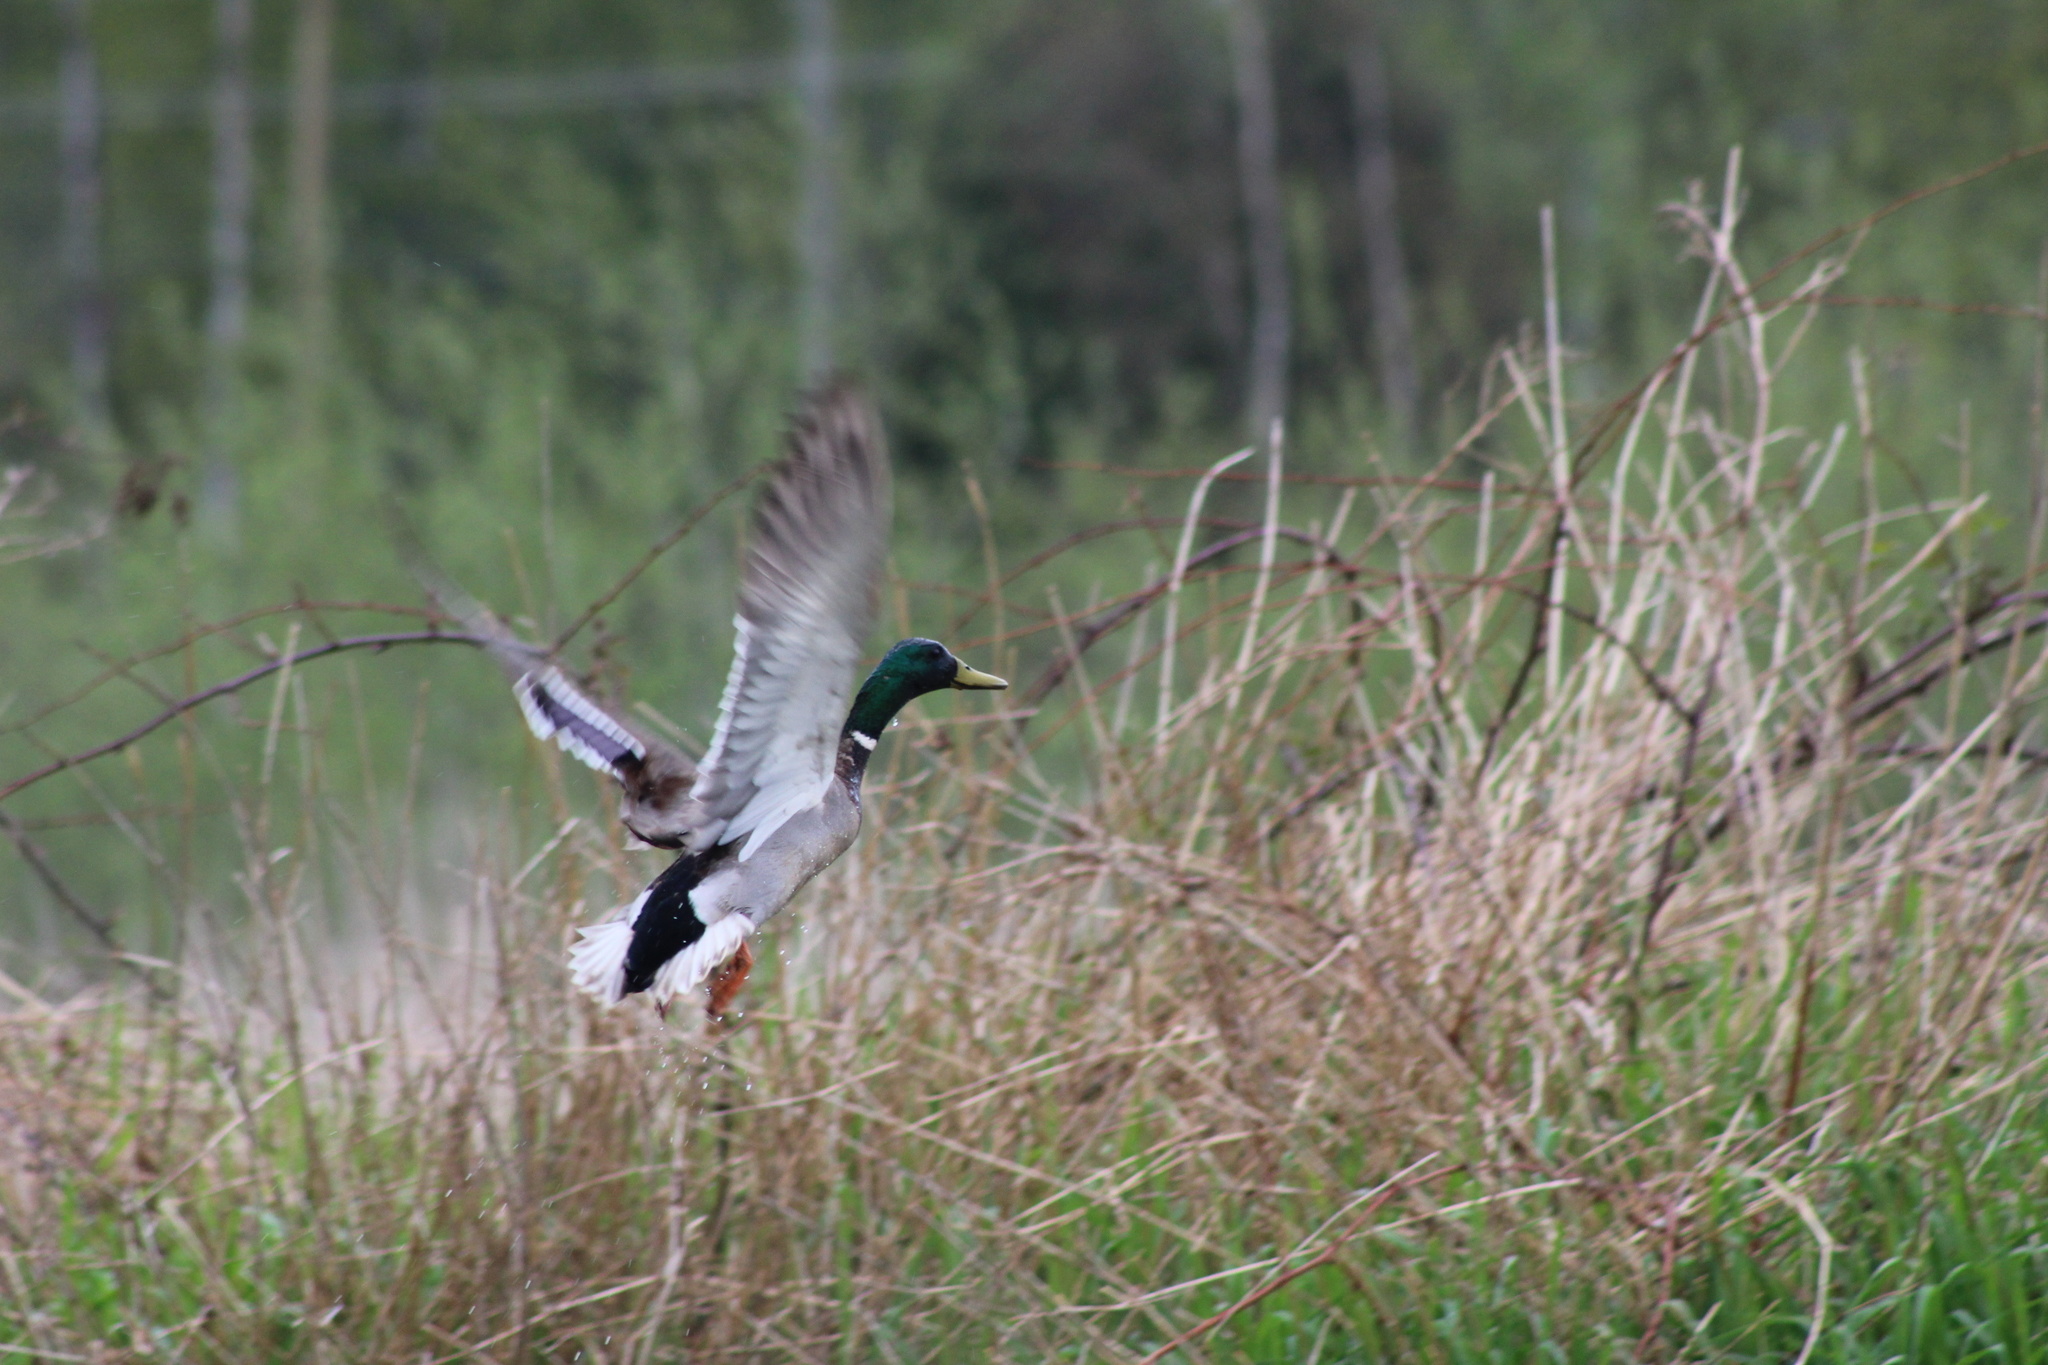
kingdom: Animalia
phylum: Chordata
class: Aves
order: Anseriformes
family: Anatidae
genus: Anas
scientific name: Anas platyrhynchos
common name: Mallard
